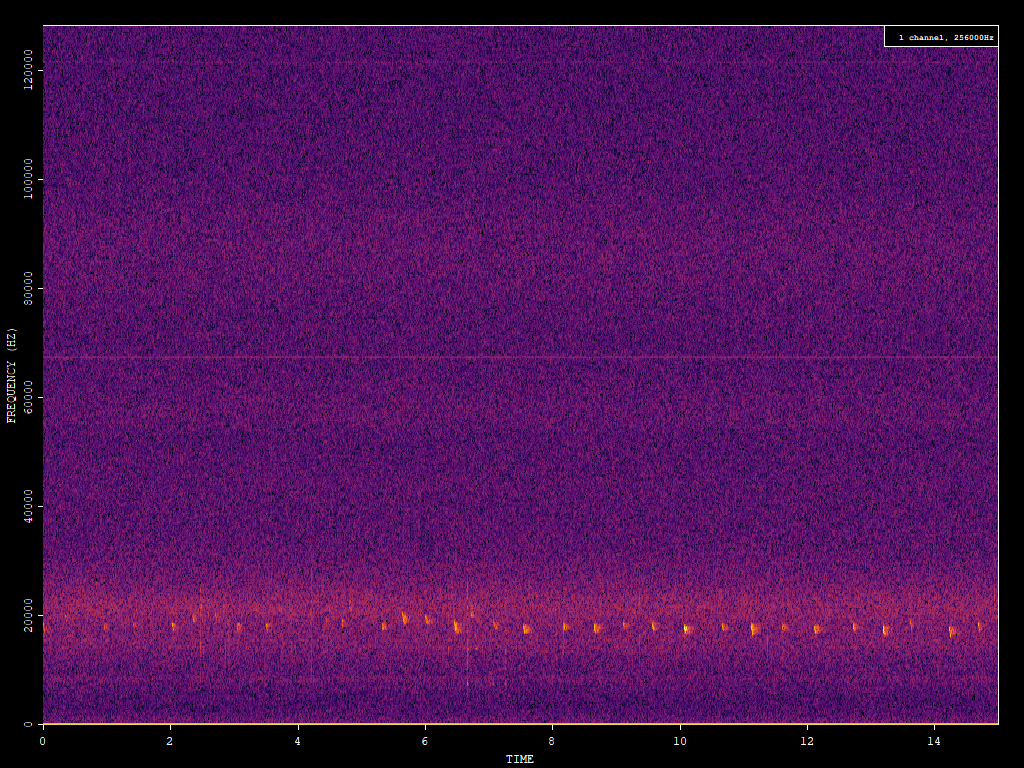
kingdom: Animalia
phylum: Chordata
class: Mammalia
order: Chiroptera
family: Vespertilionidae
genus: Nyctalus
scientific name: Nyctalus noctula
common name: Noctule
